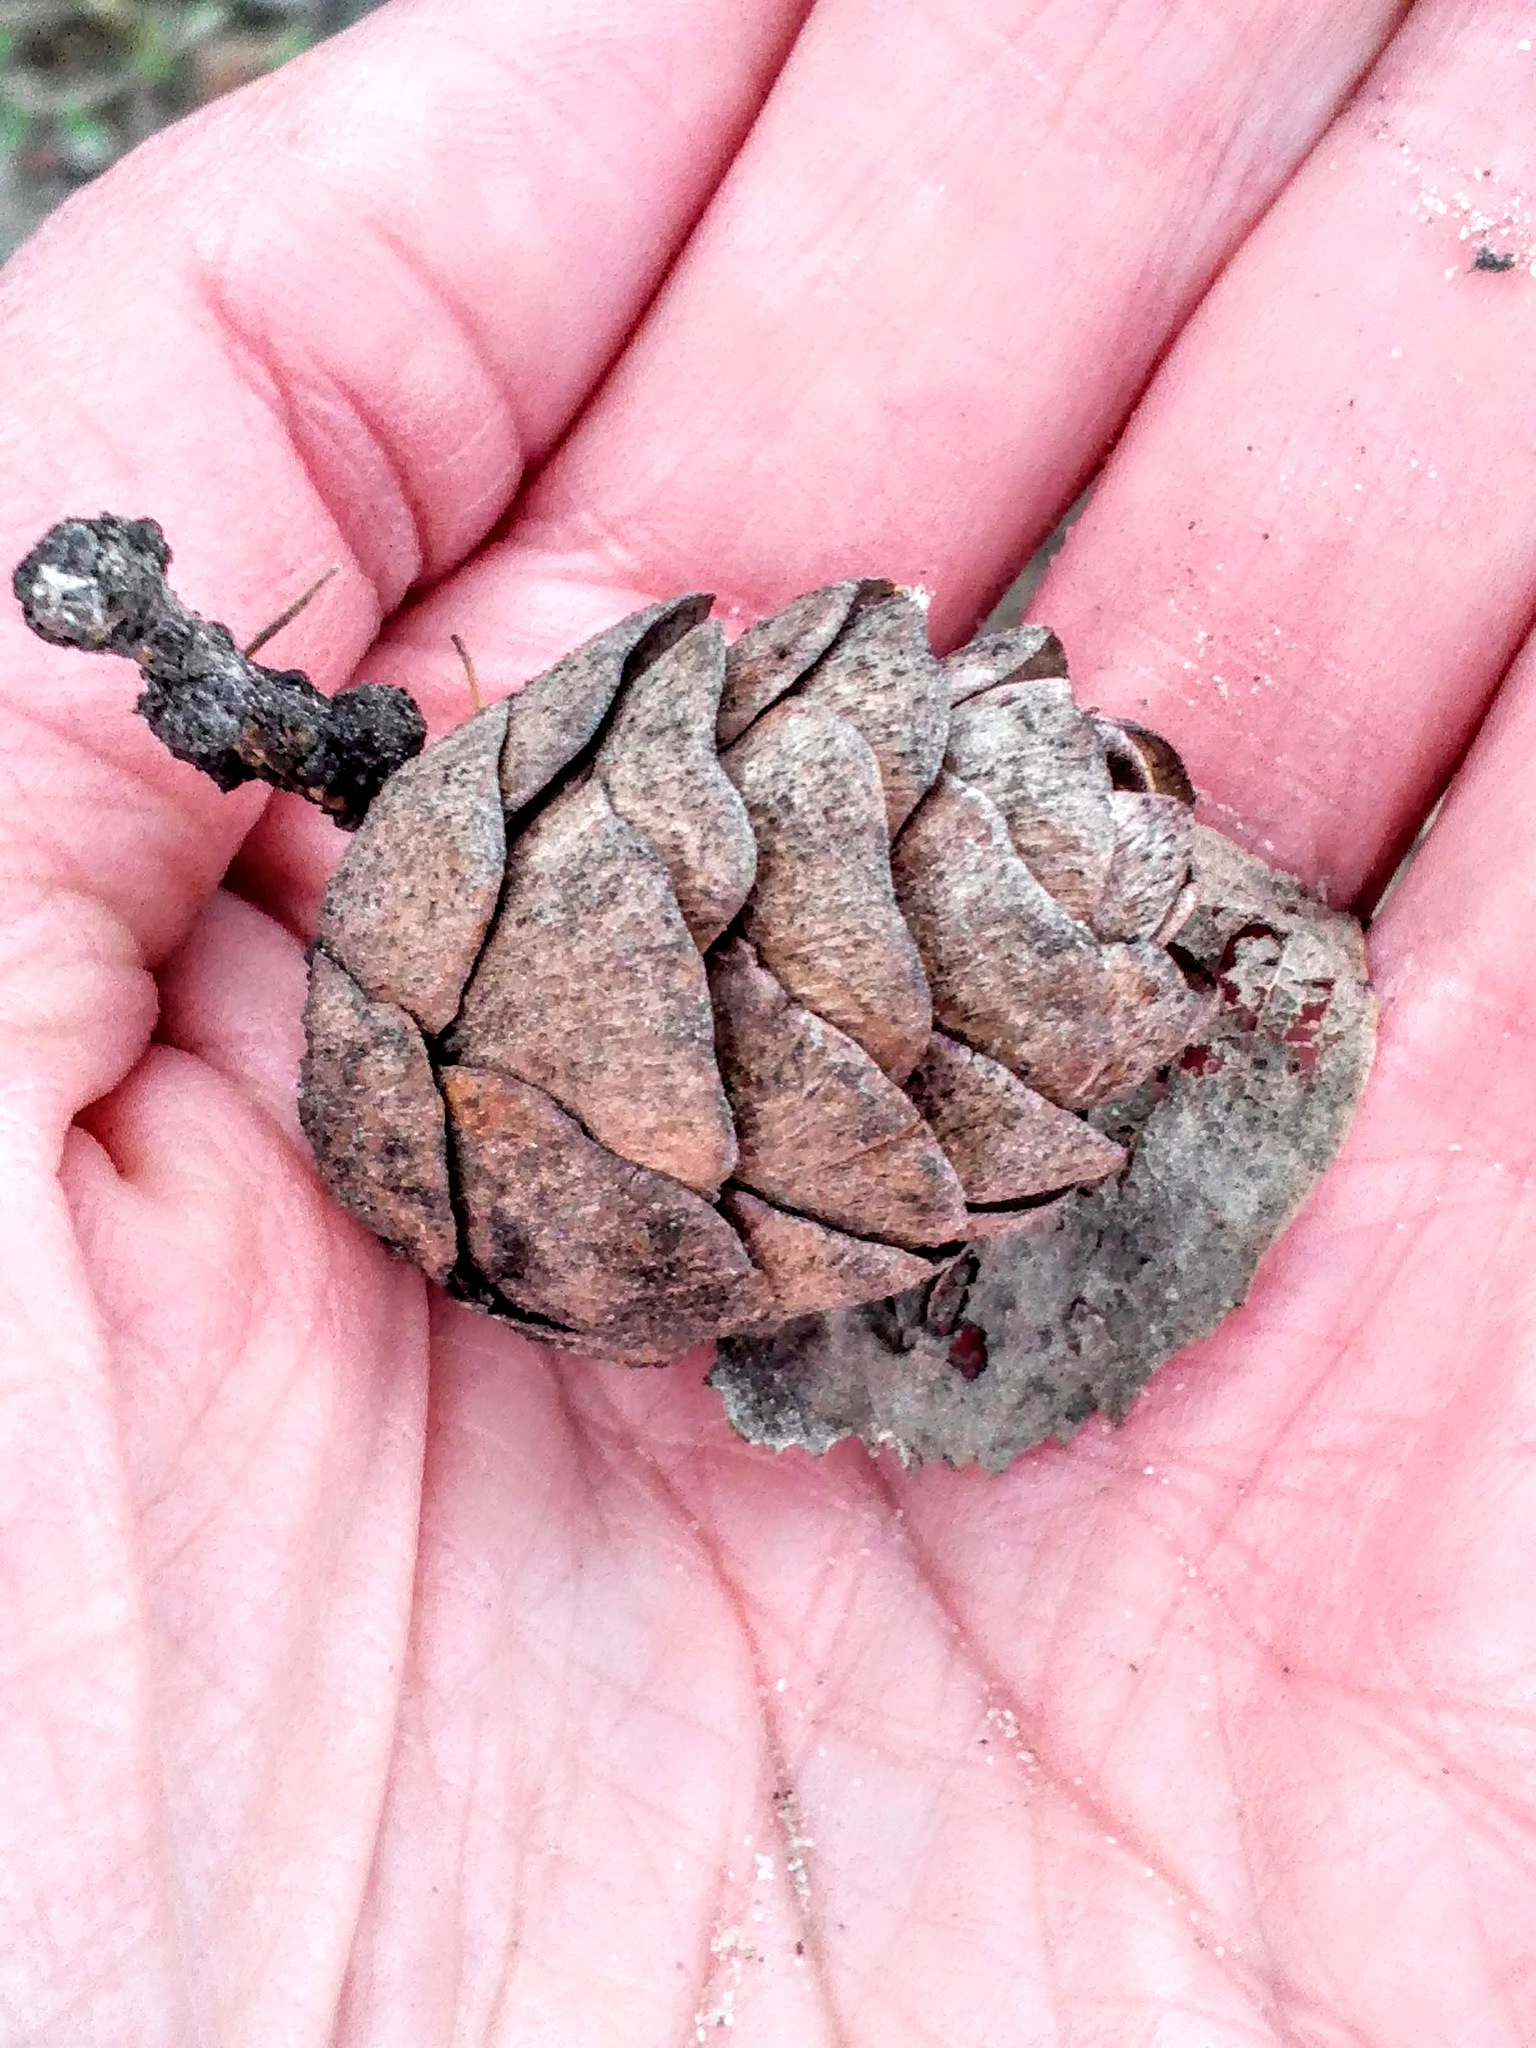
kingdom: Plantae
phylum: Tracheophyta
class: Pinopsida
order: Pinales
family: Pinaceae
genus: Larix
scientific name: Larix sibirica
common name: Siberian larch
